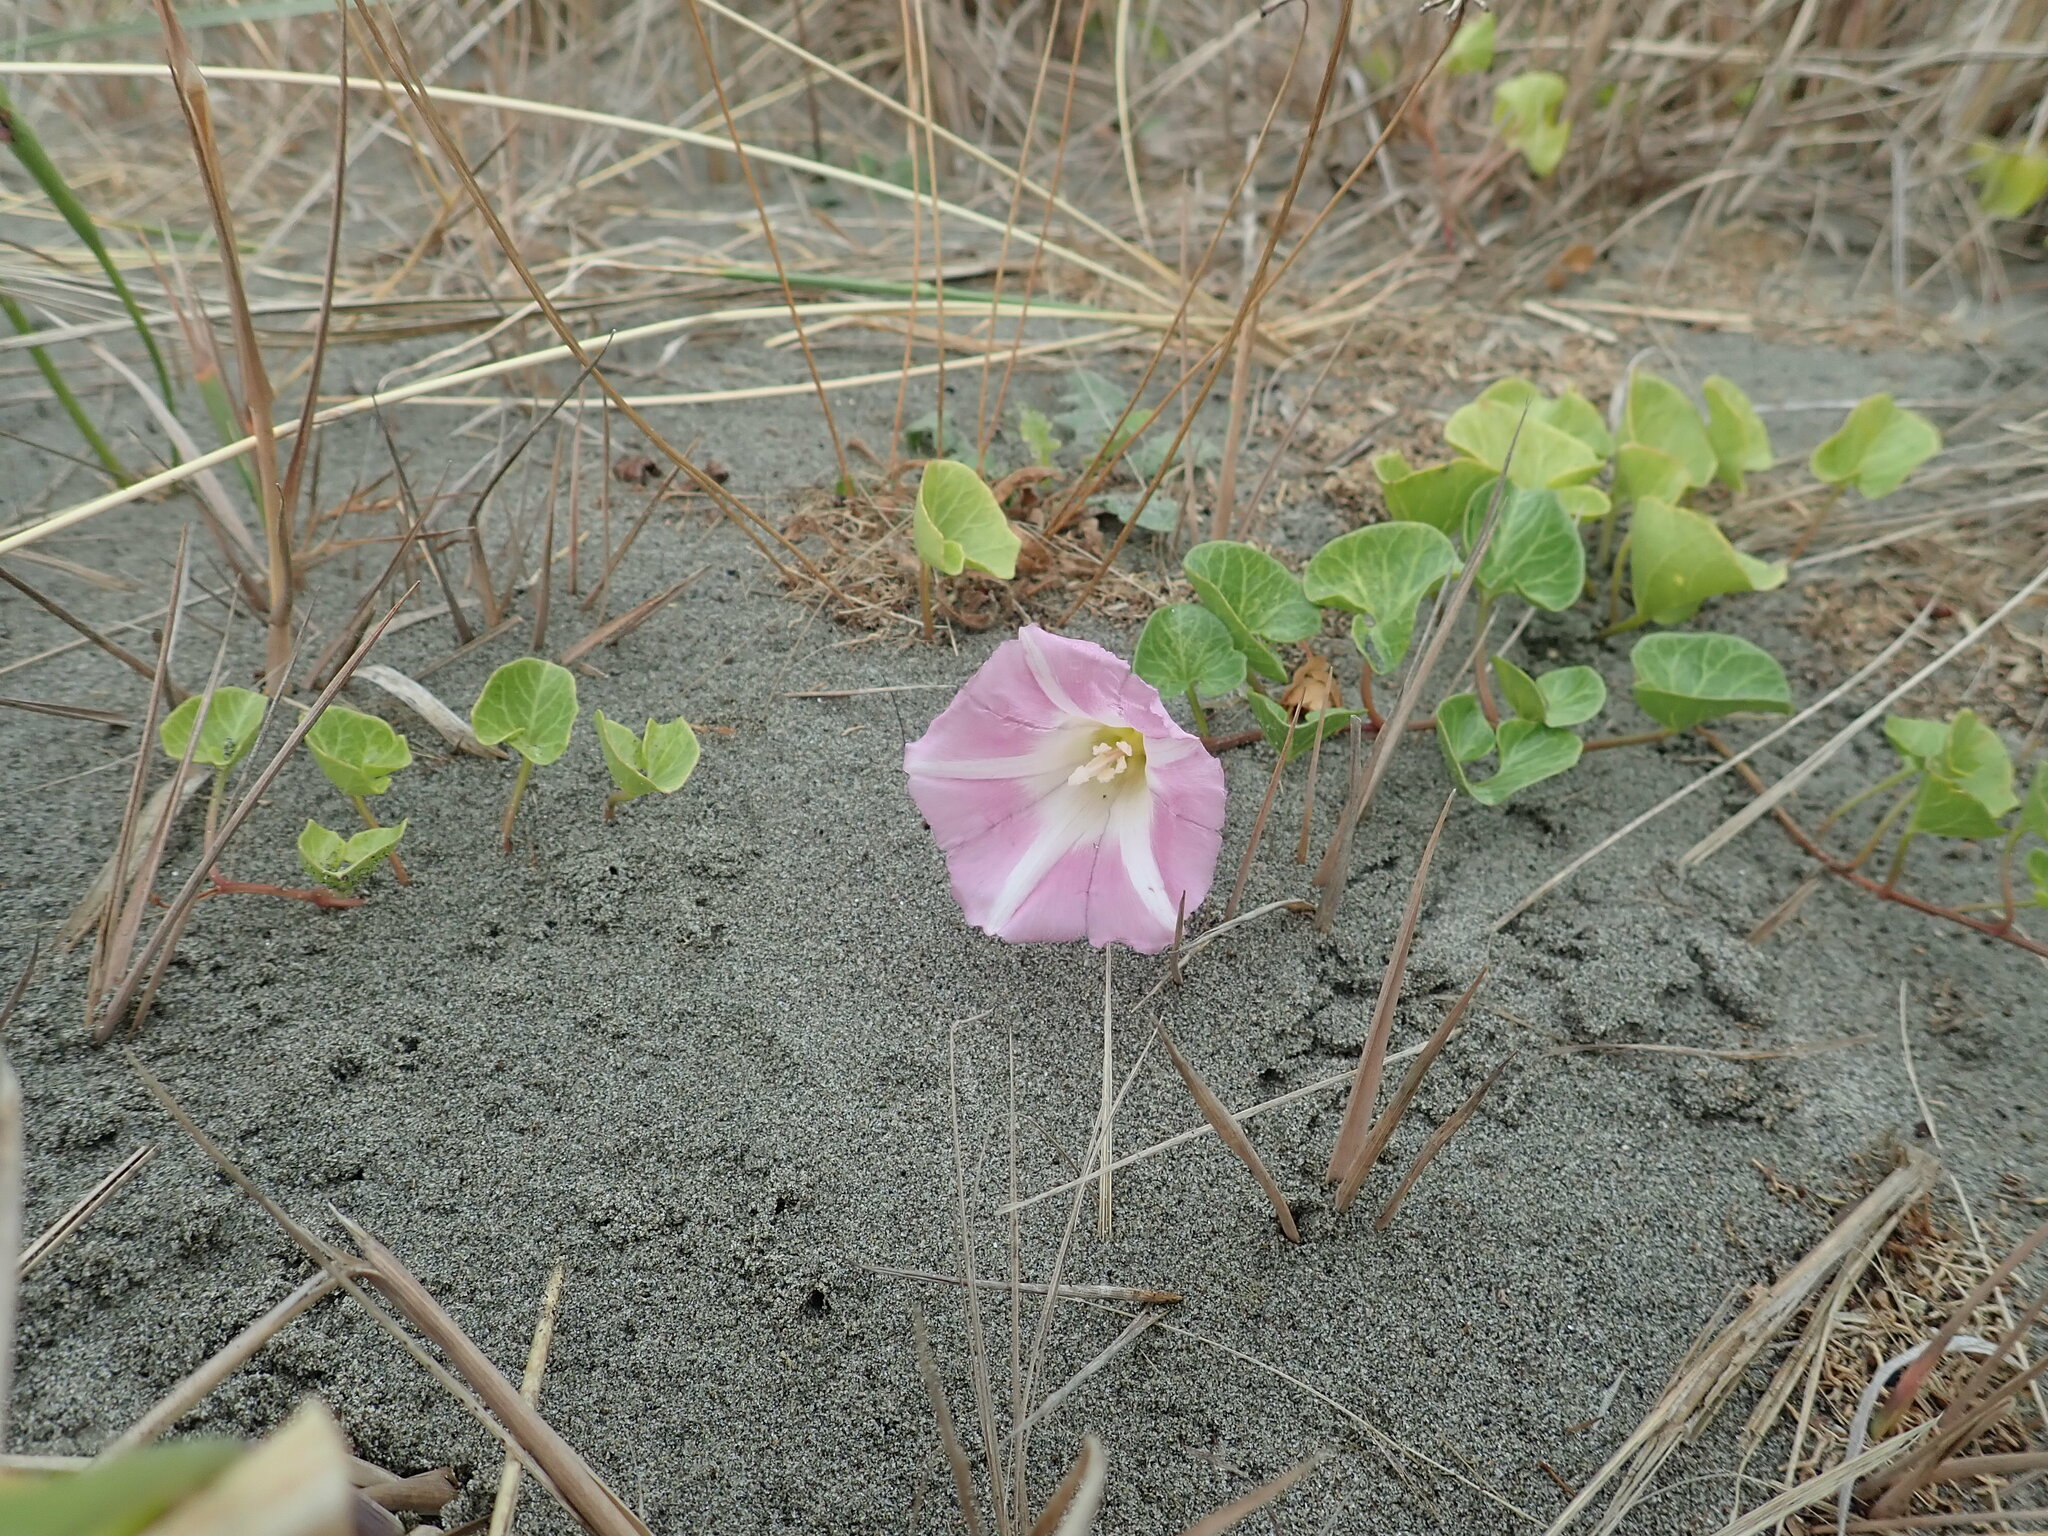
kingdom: Plantae
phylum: Tracheophyta
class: Magnoliopsida
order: Solanales
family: Convolvulaceae
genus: Calystegia
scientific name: Calystegia soldanella
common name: Sea bindweed
